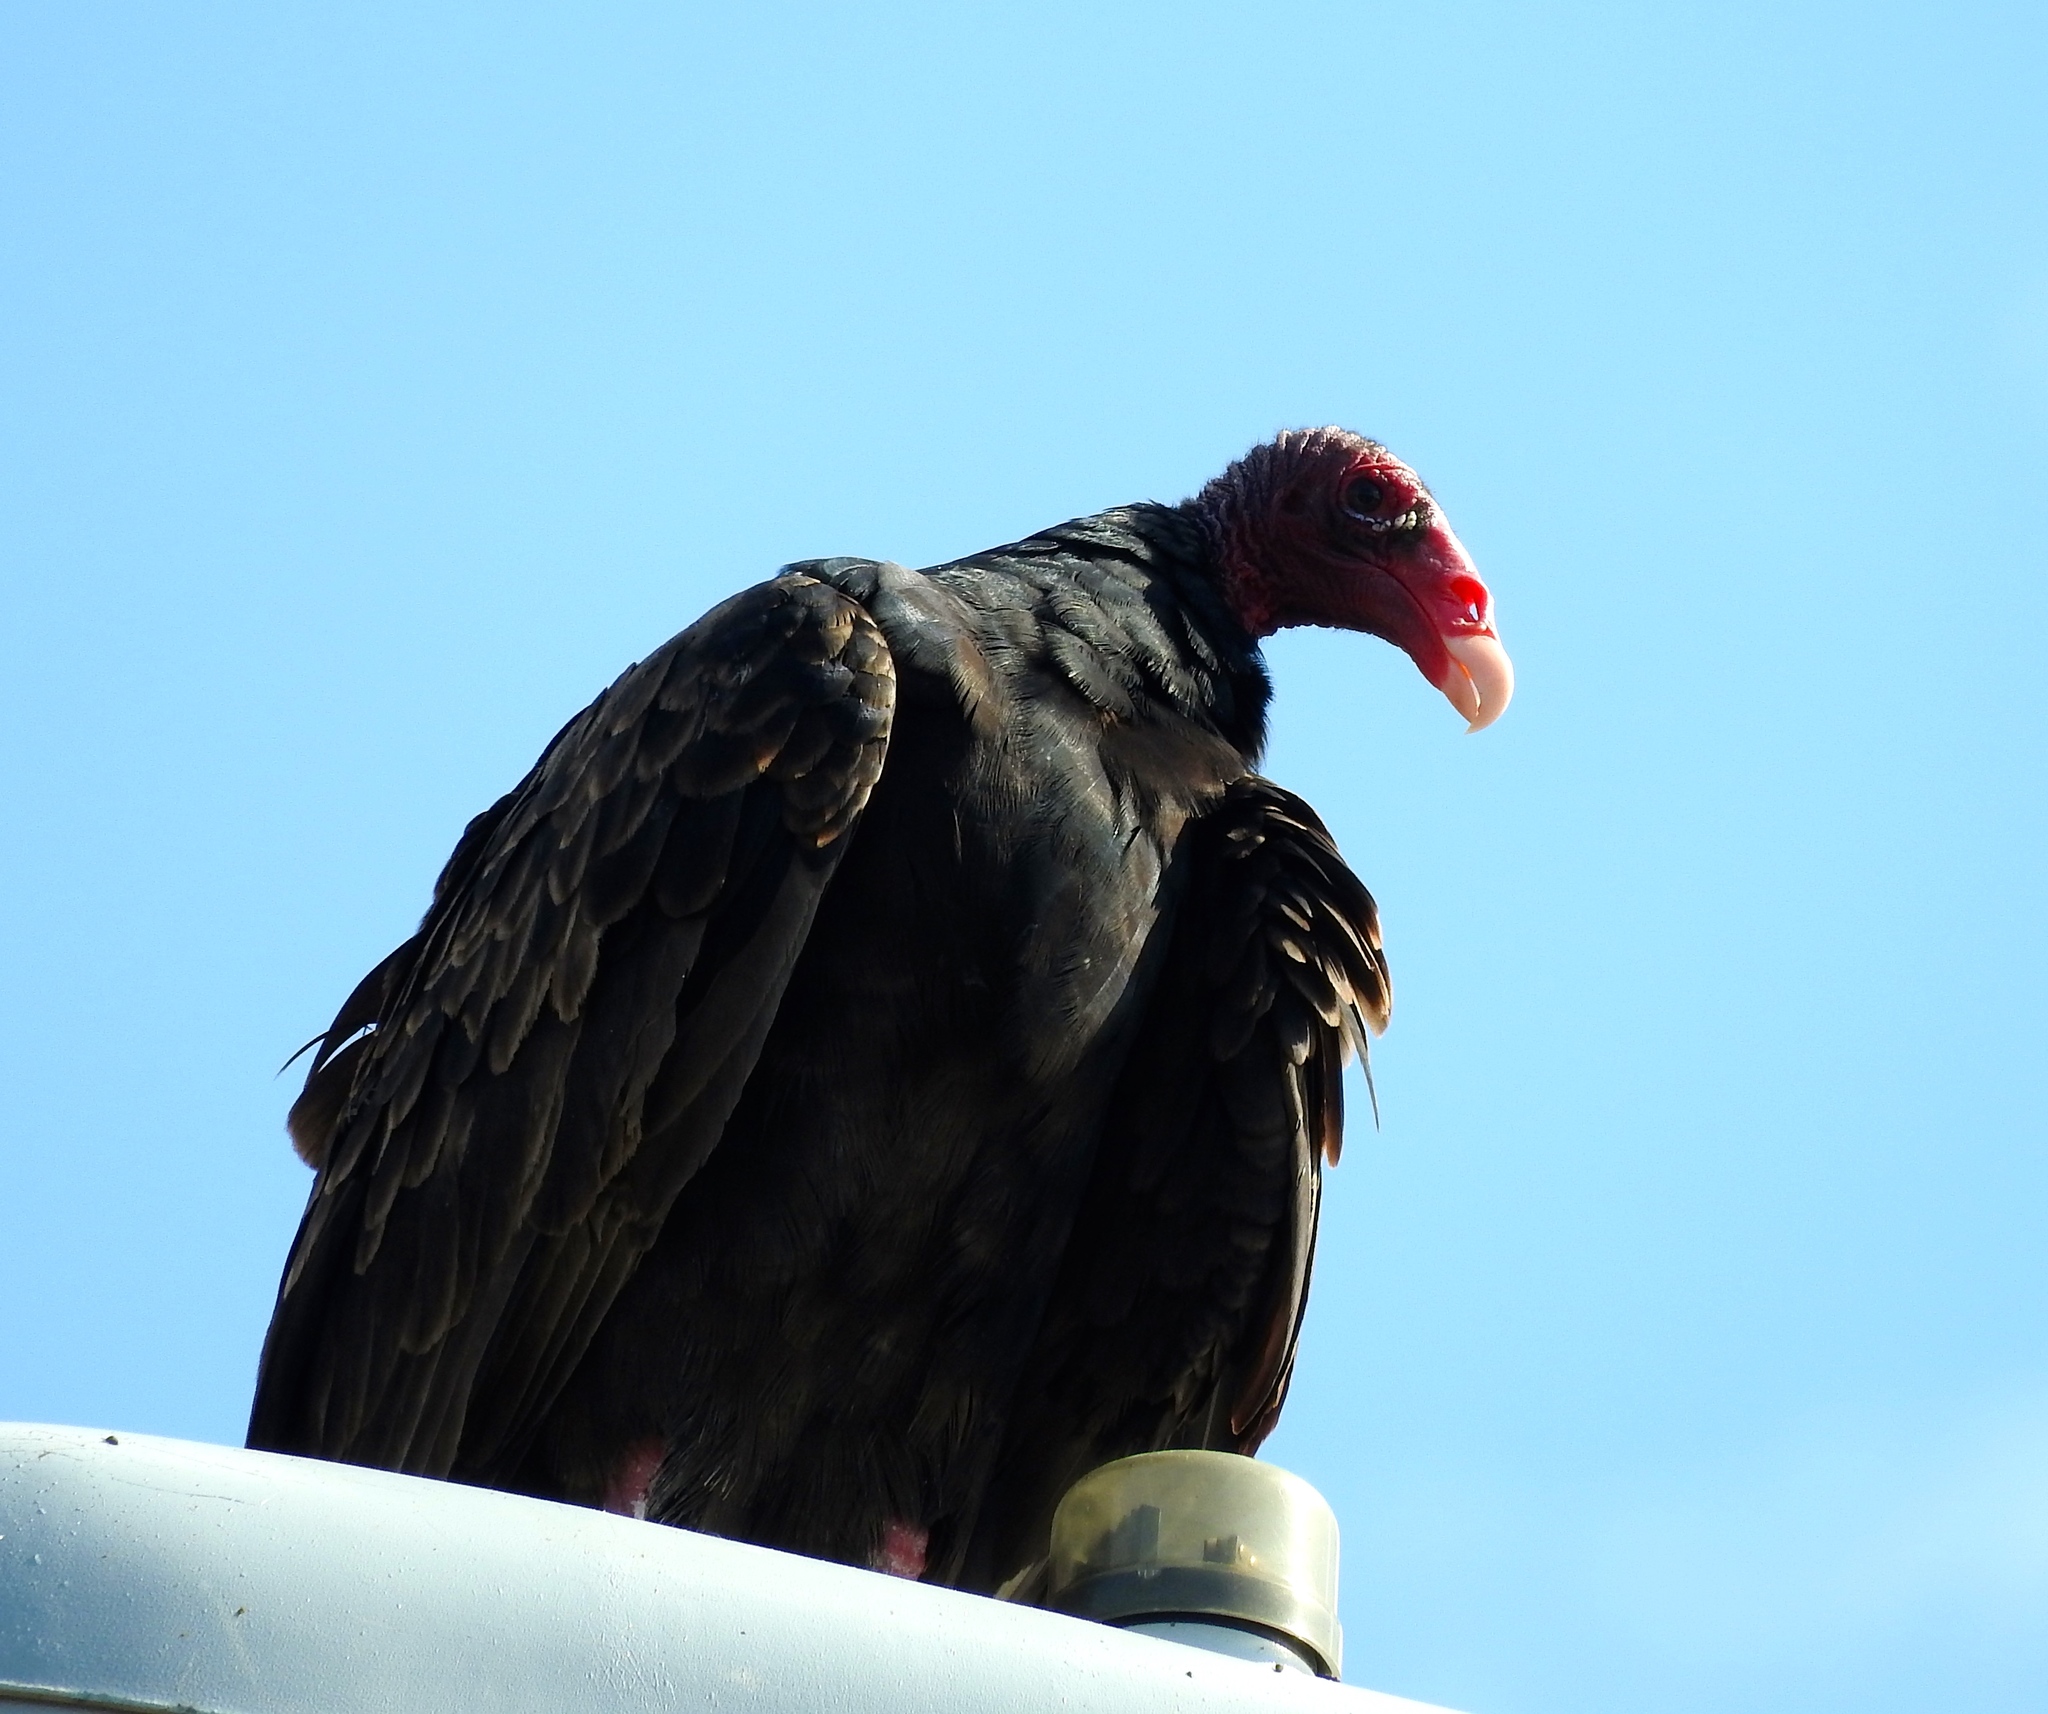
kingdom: Animalia
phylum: Chordata
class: Aves
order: Accipitriformes
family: Cathartidae
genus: Cathartes
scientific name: Cathartes aura
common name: Turkey vulture
